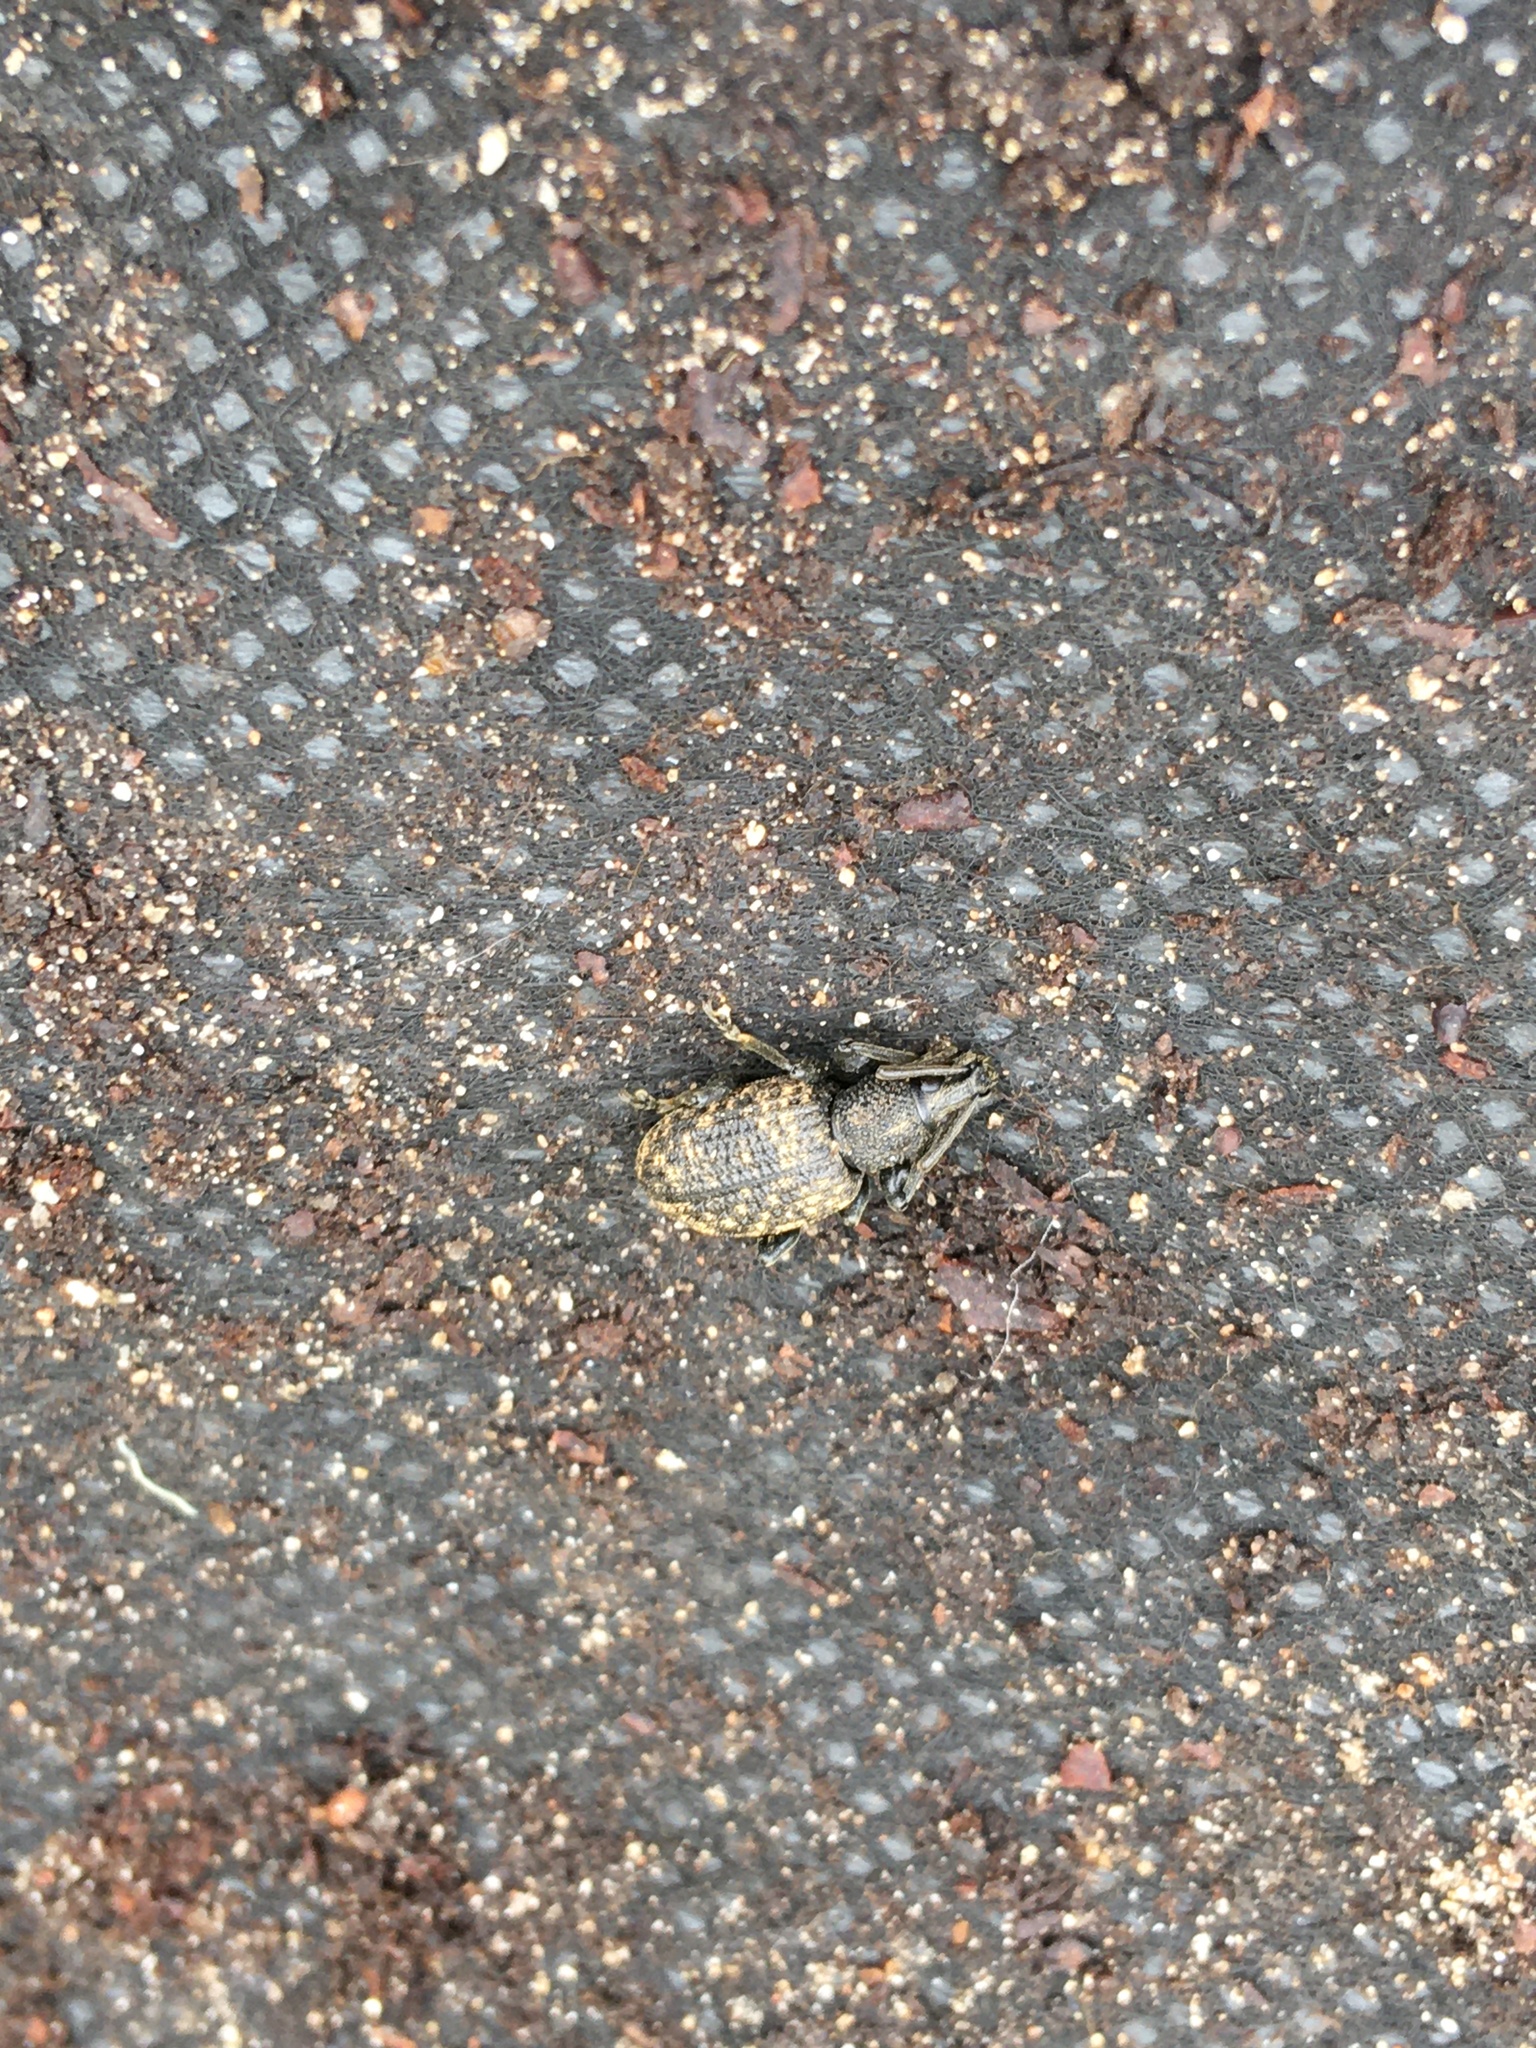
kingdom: Animalia
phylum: Arthropoda
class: Insecta
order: Coleoptera
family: Curculionidae
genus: Otiorhynchus
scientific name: Otiorhynchus sulcatus
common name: Black vine weevil
